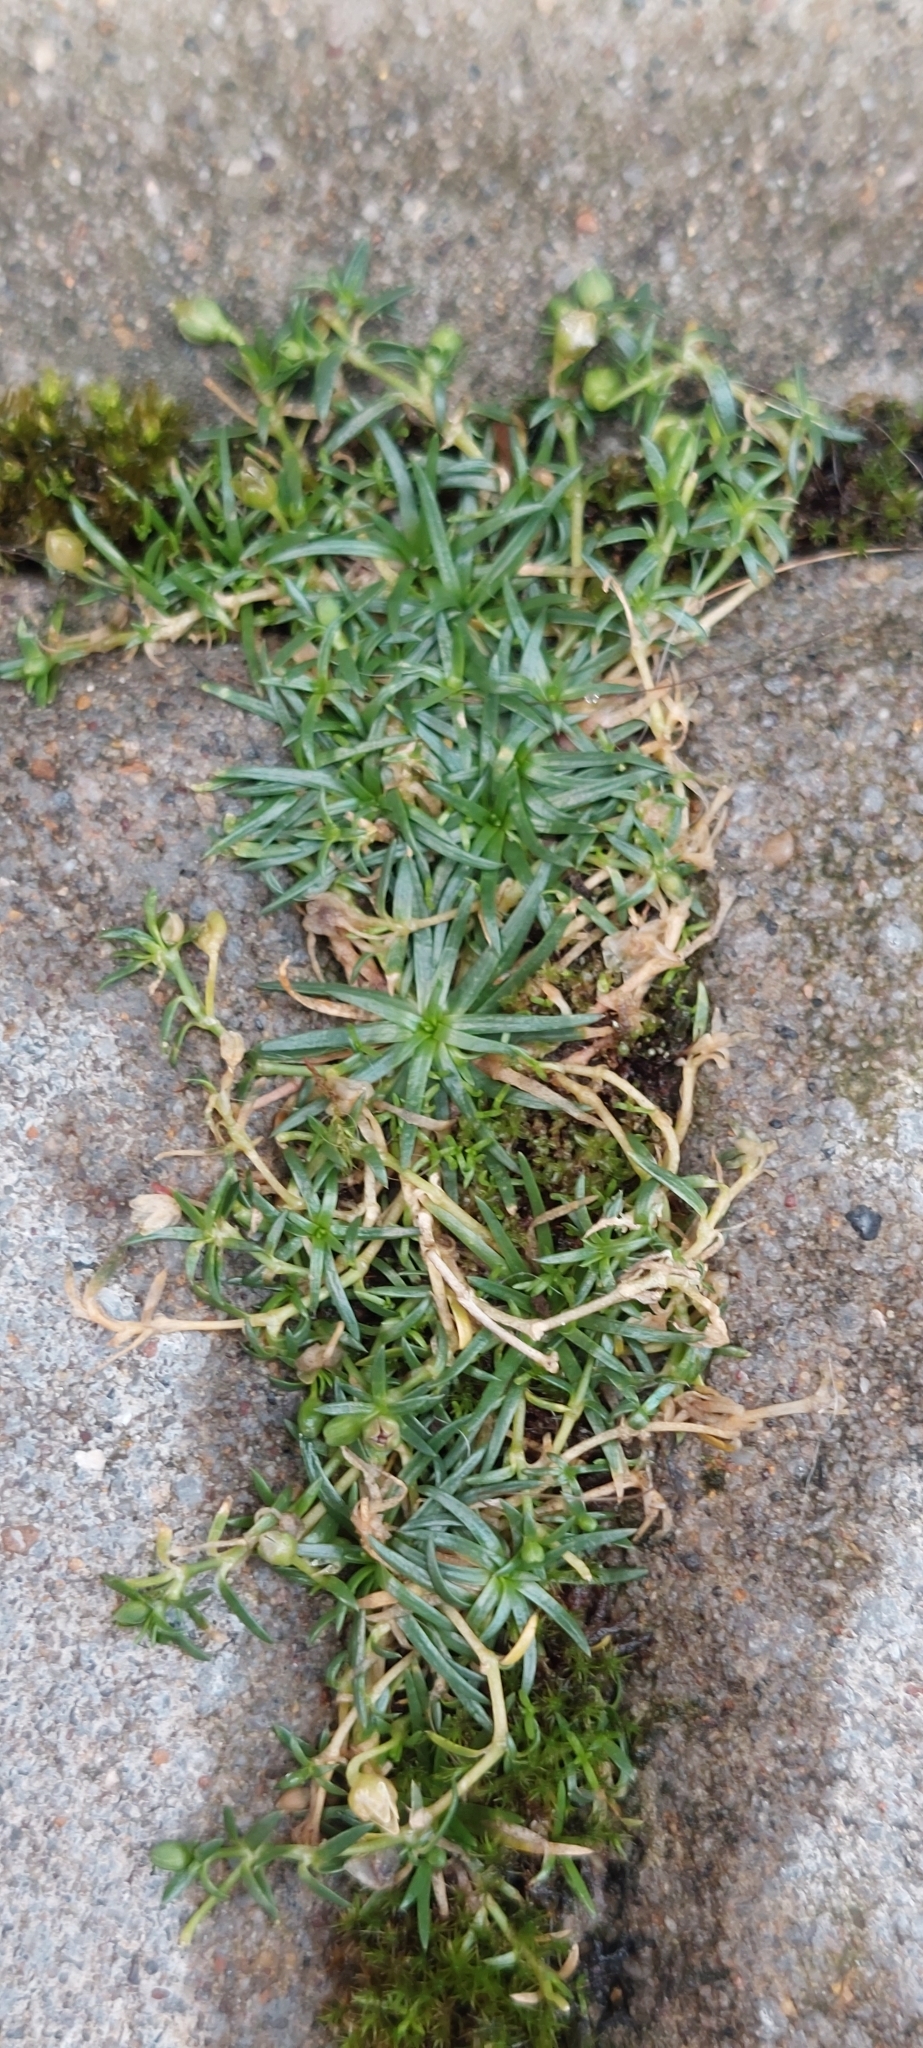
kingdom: Plantae
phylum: Tracheophyta
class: Magnoliopsida
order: Caryophyllales
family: Caryophyllaceae
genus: Sagina
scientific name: Sagina procumbens
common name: Procumbent pearlwort
